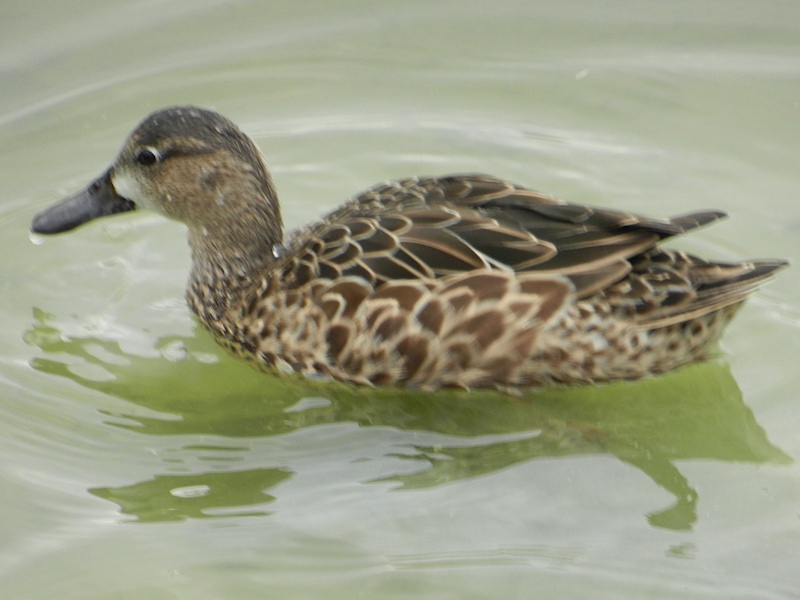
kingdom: Animalia
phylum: Chordata
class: Aves
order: Anseriformes
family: Anatidae
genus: Spatula
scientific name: Spatula discors
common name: Blue-winged teal
